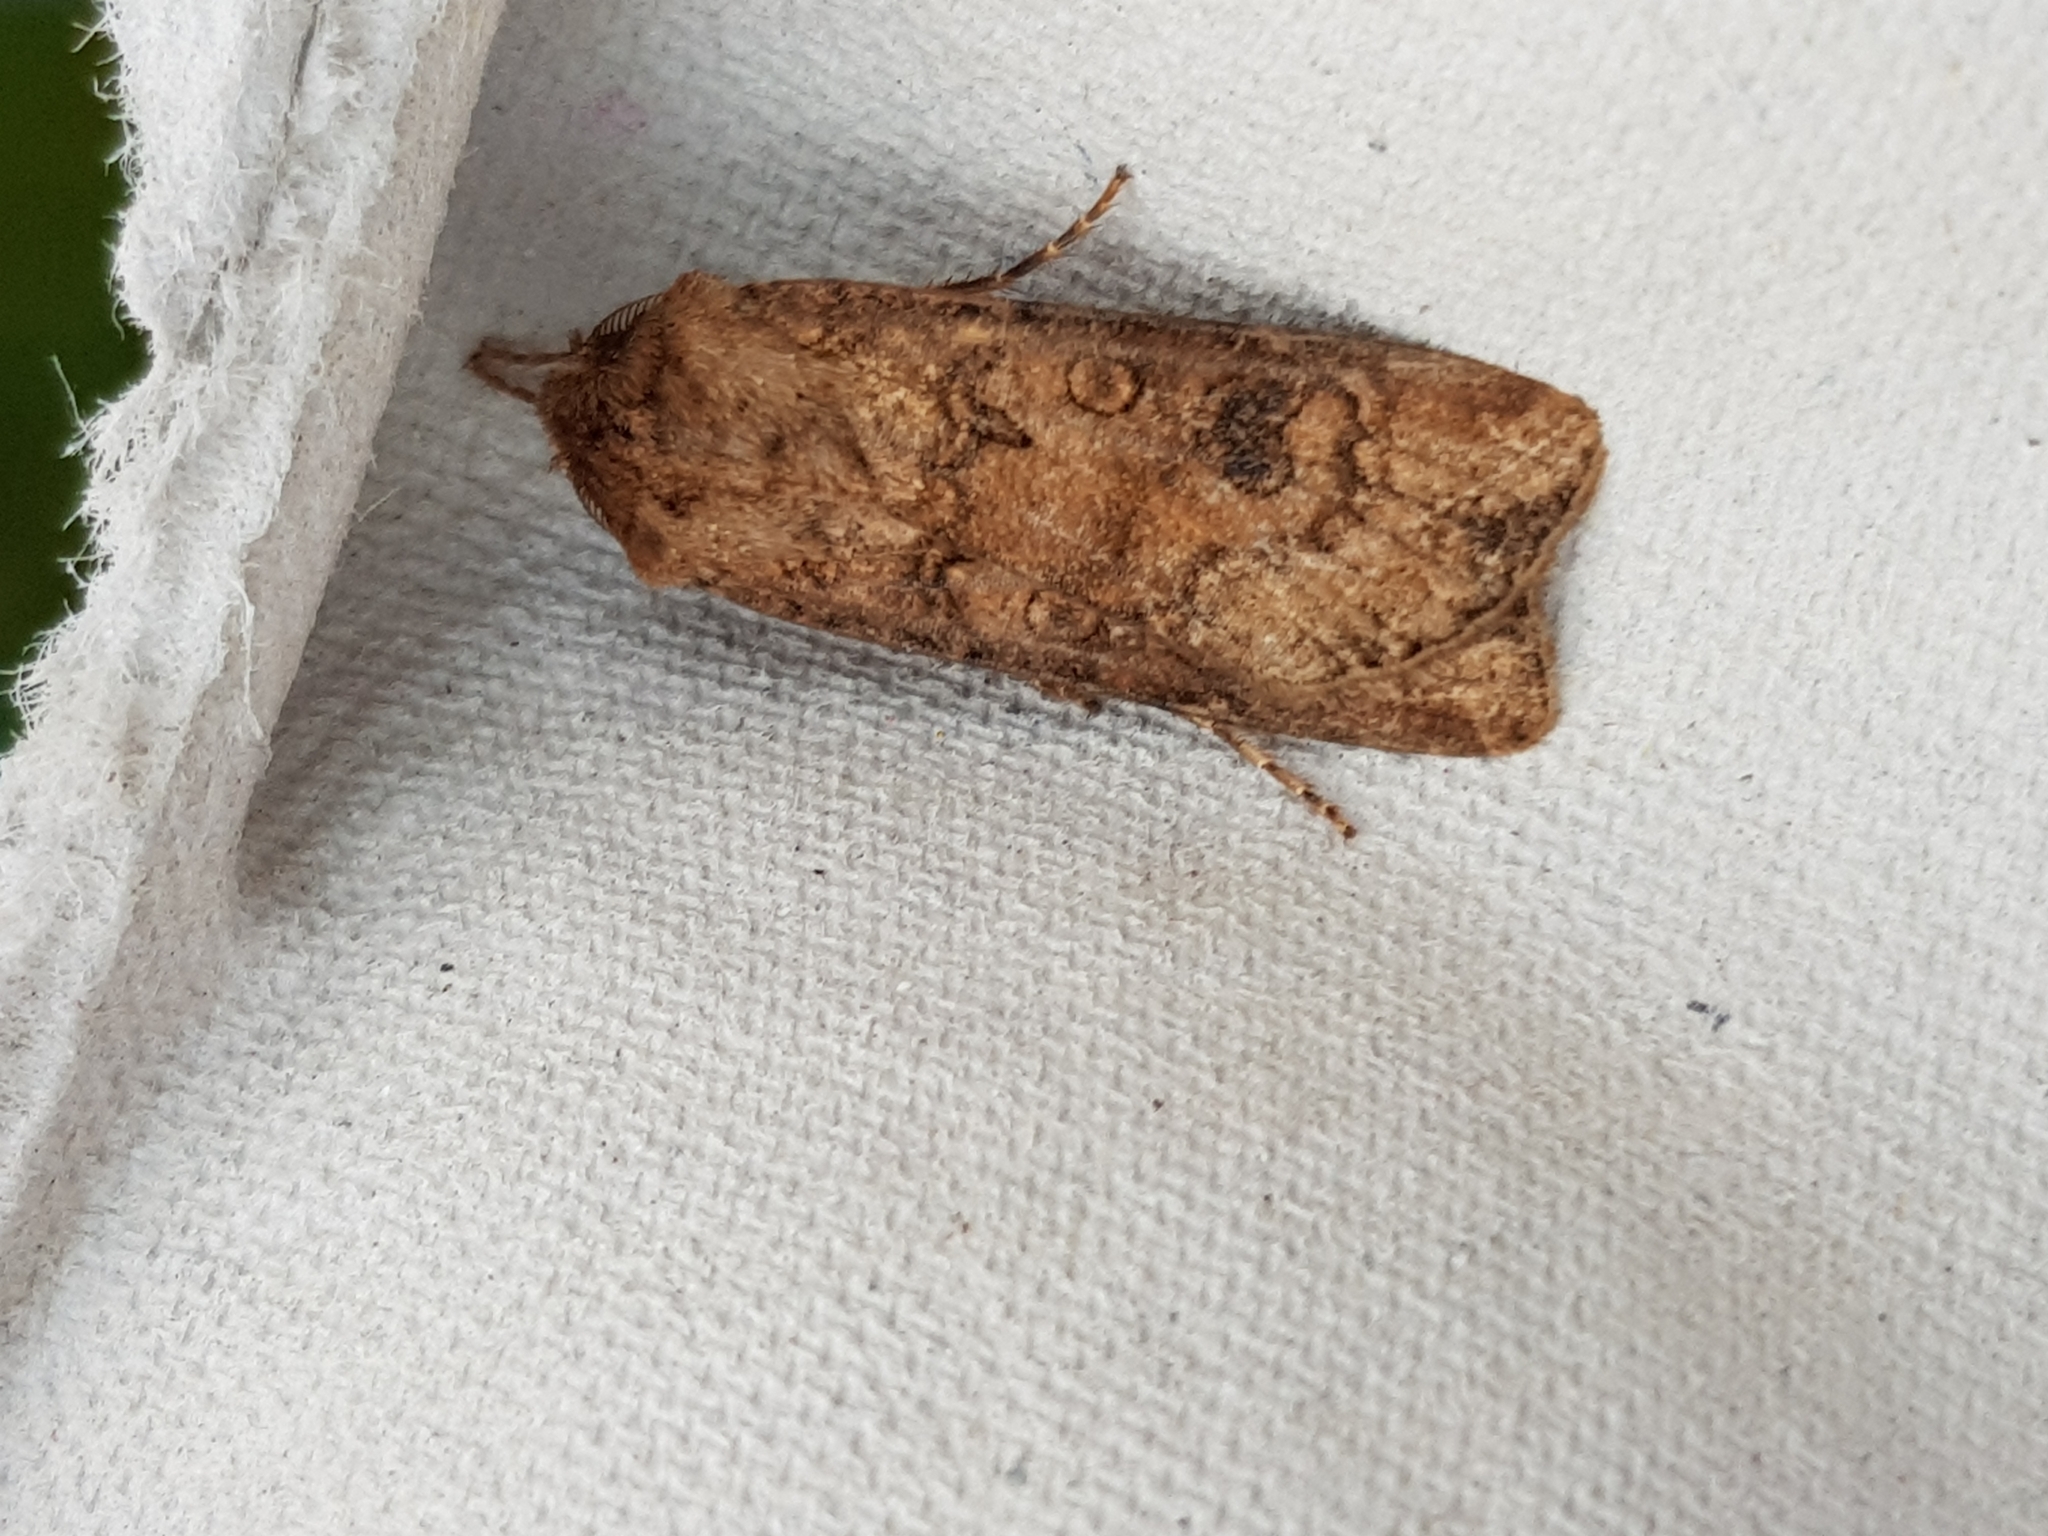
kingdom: Animalia
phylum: Arthropoda
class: Insecta
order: Lepidoptera
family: Noctuidae
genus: Agrotis
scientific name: Agrotis segetum
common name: Turnip moth
